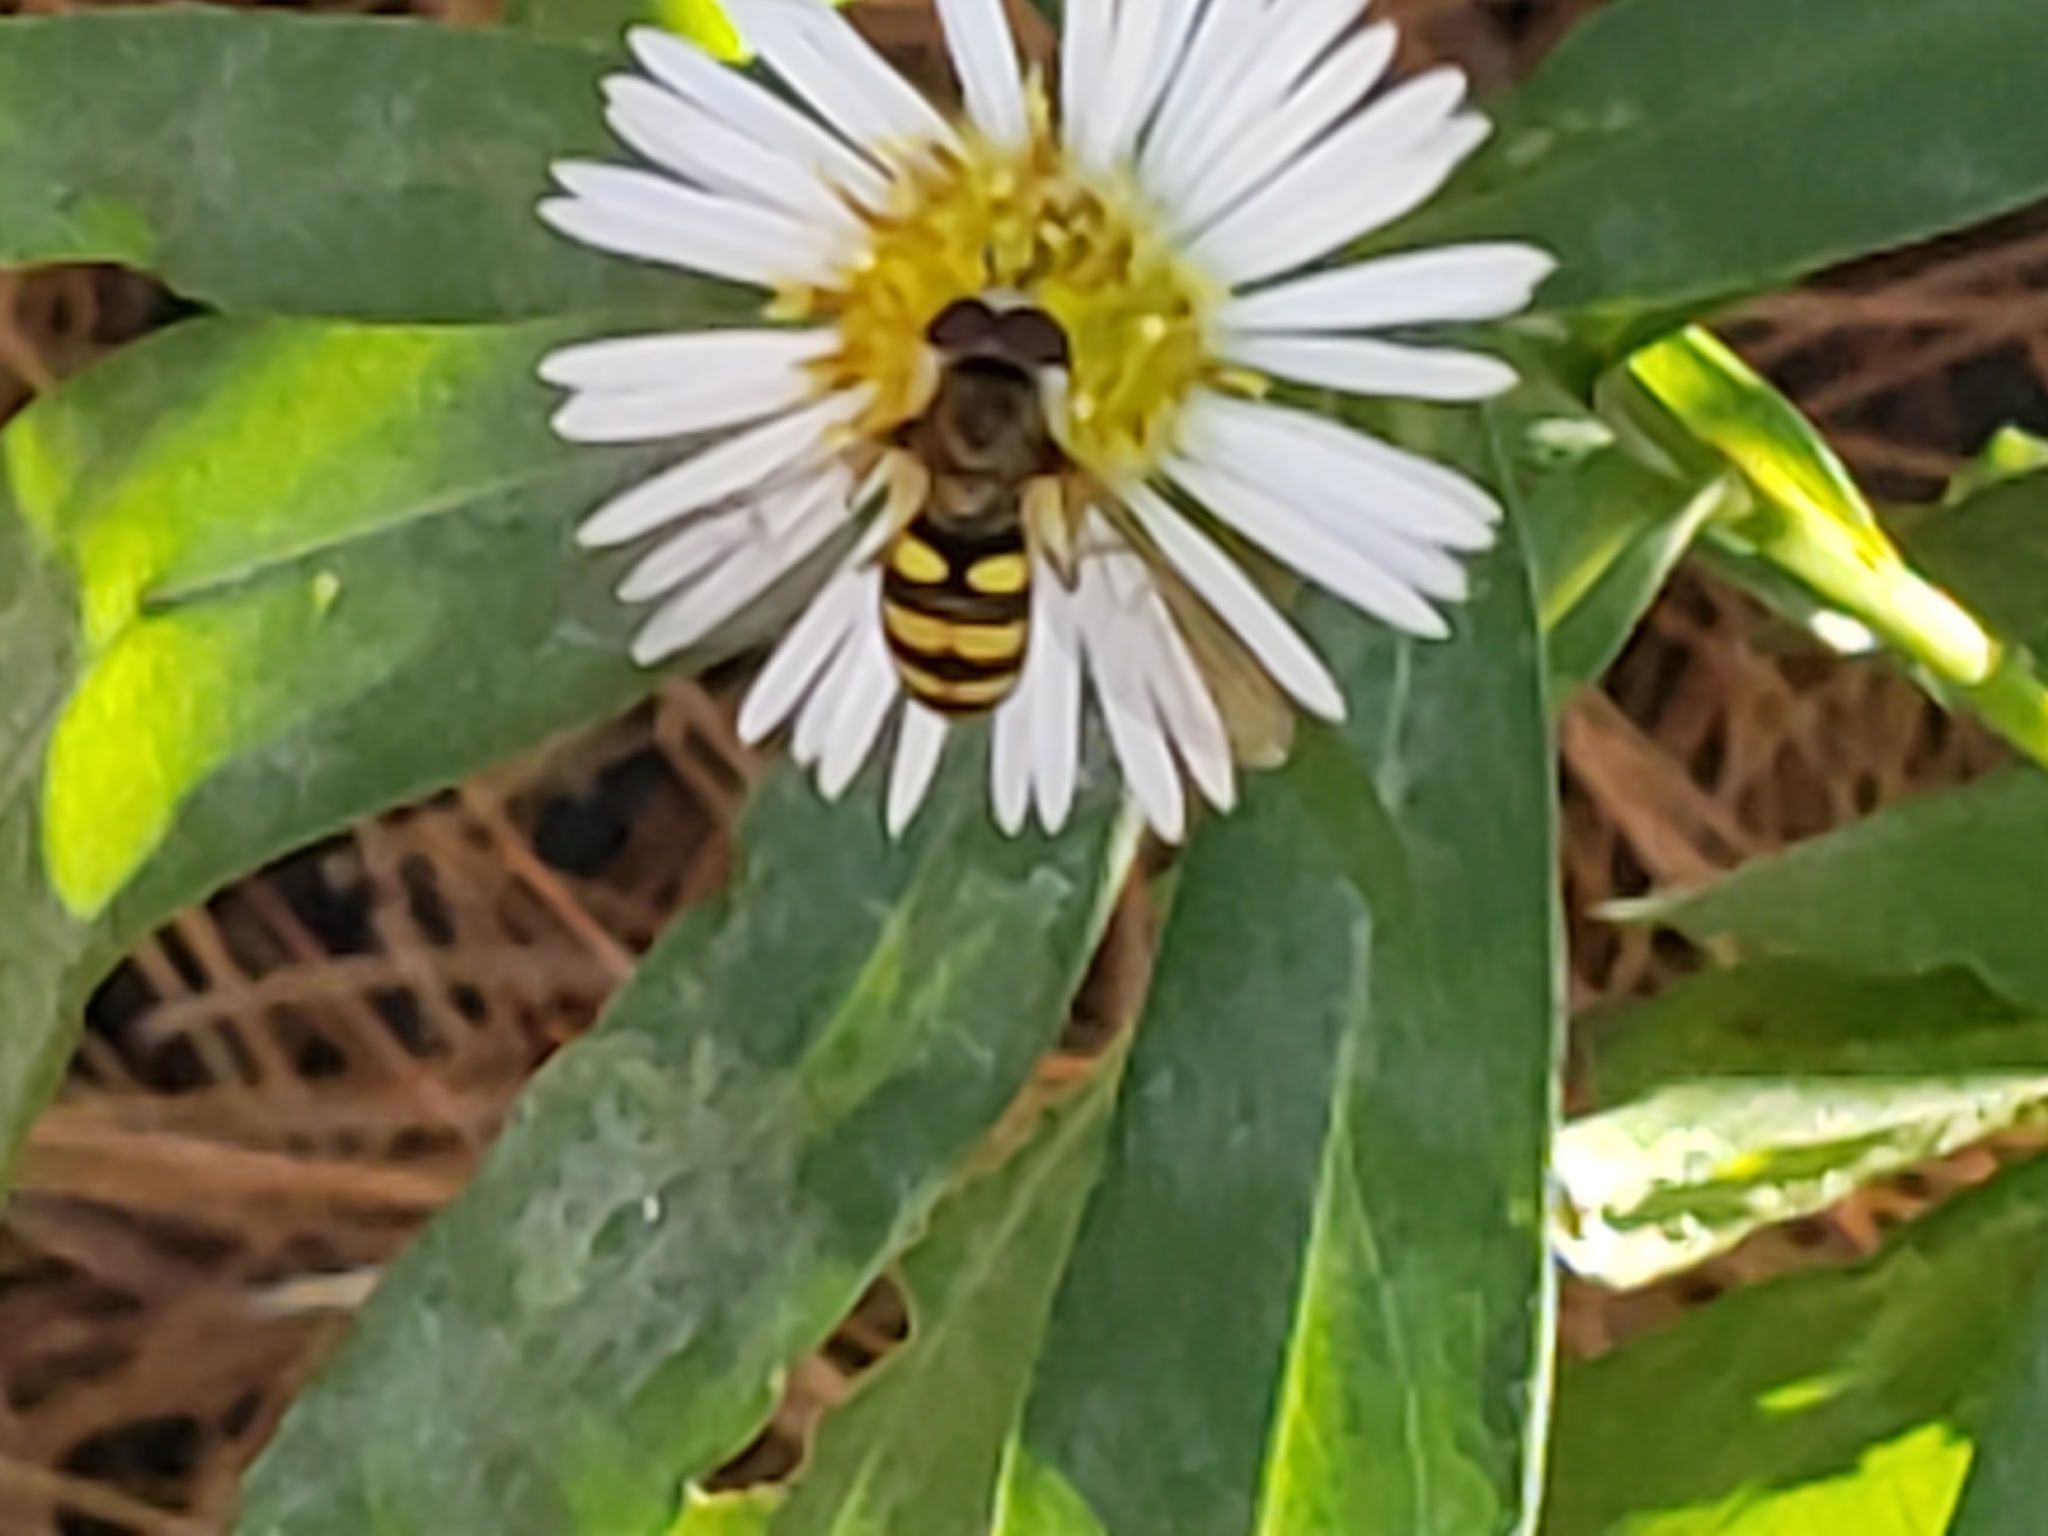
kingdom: Animalia
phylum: Arthropoda
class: Insecta
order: Diptera
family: Syrphidae
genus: Eupeodes
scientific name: Eupeodes
